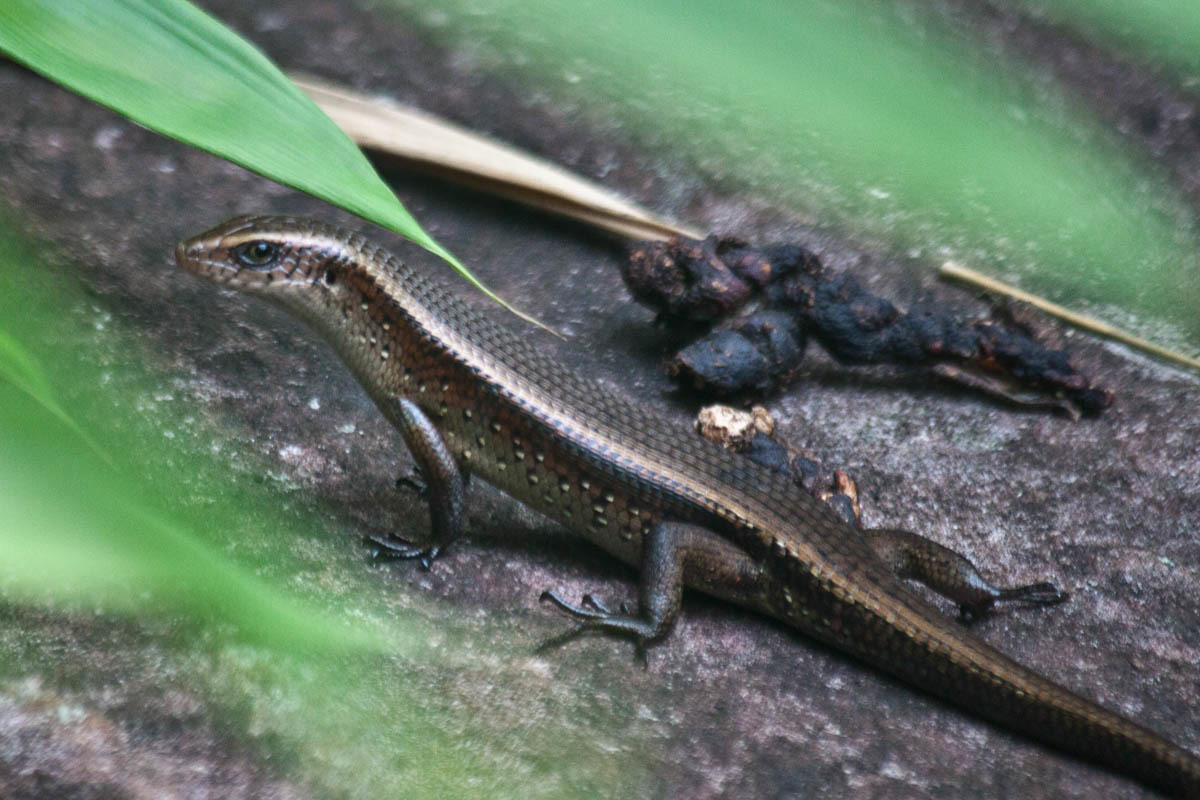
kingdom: Animalia
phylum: Chordata
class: Squamata
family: Scincidae
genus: Eutropis
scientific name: Eutropis multifasciata
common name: Common mabuya
